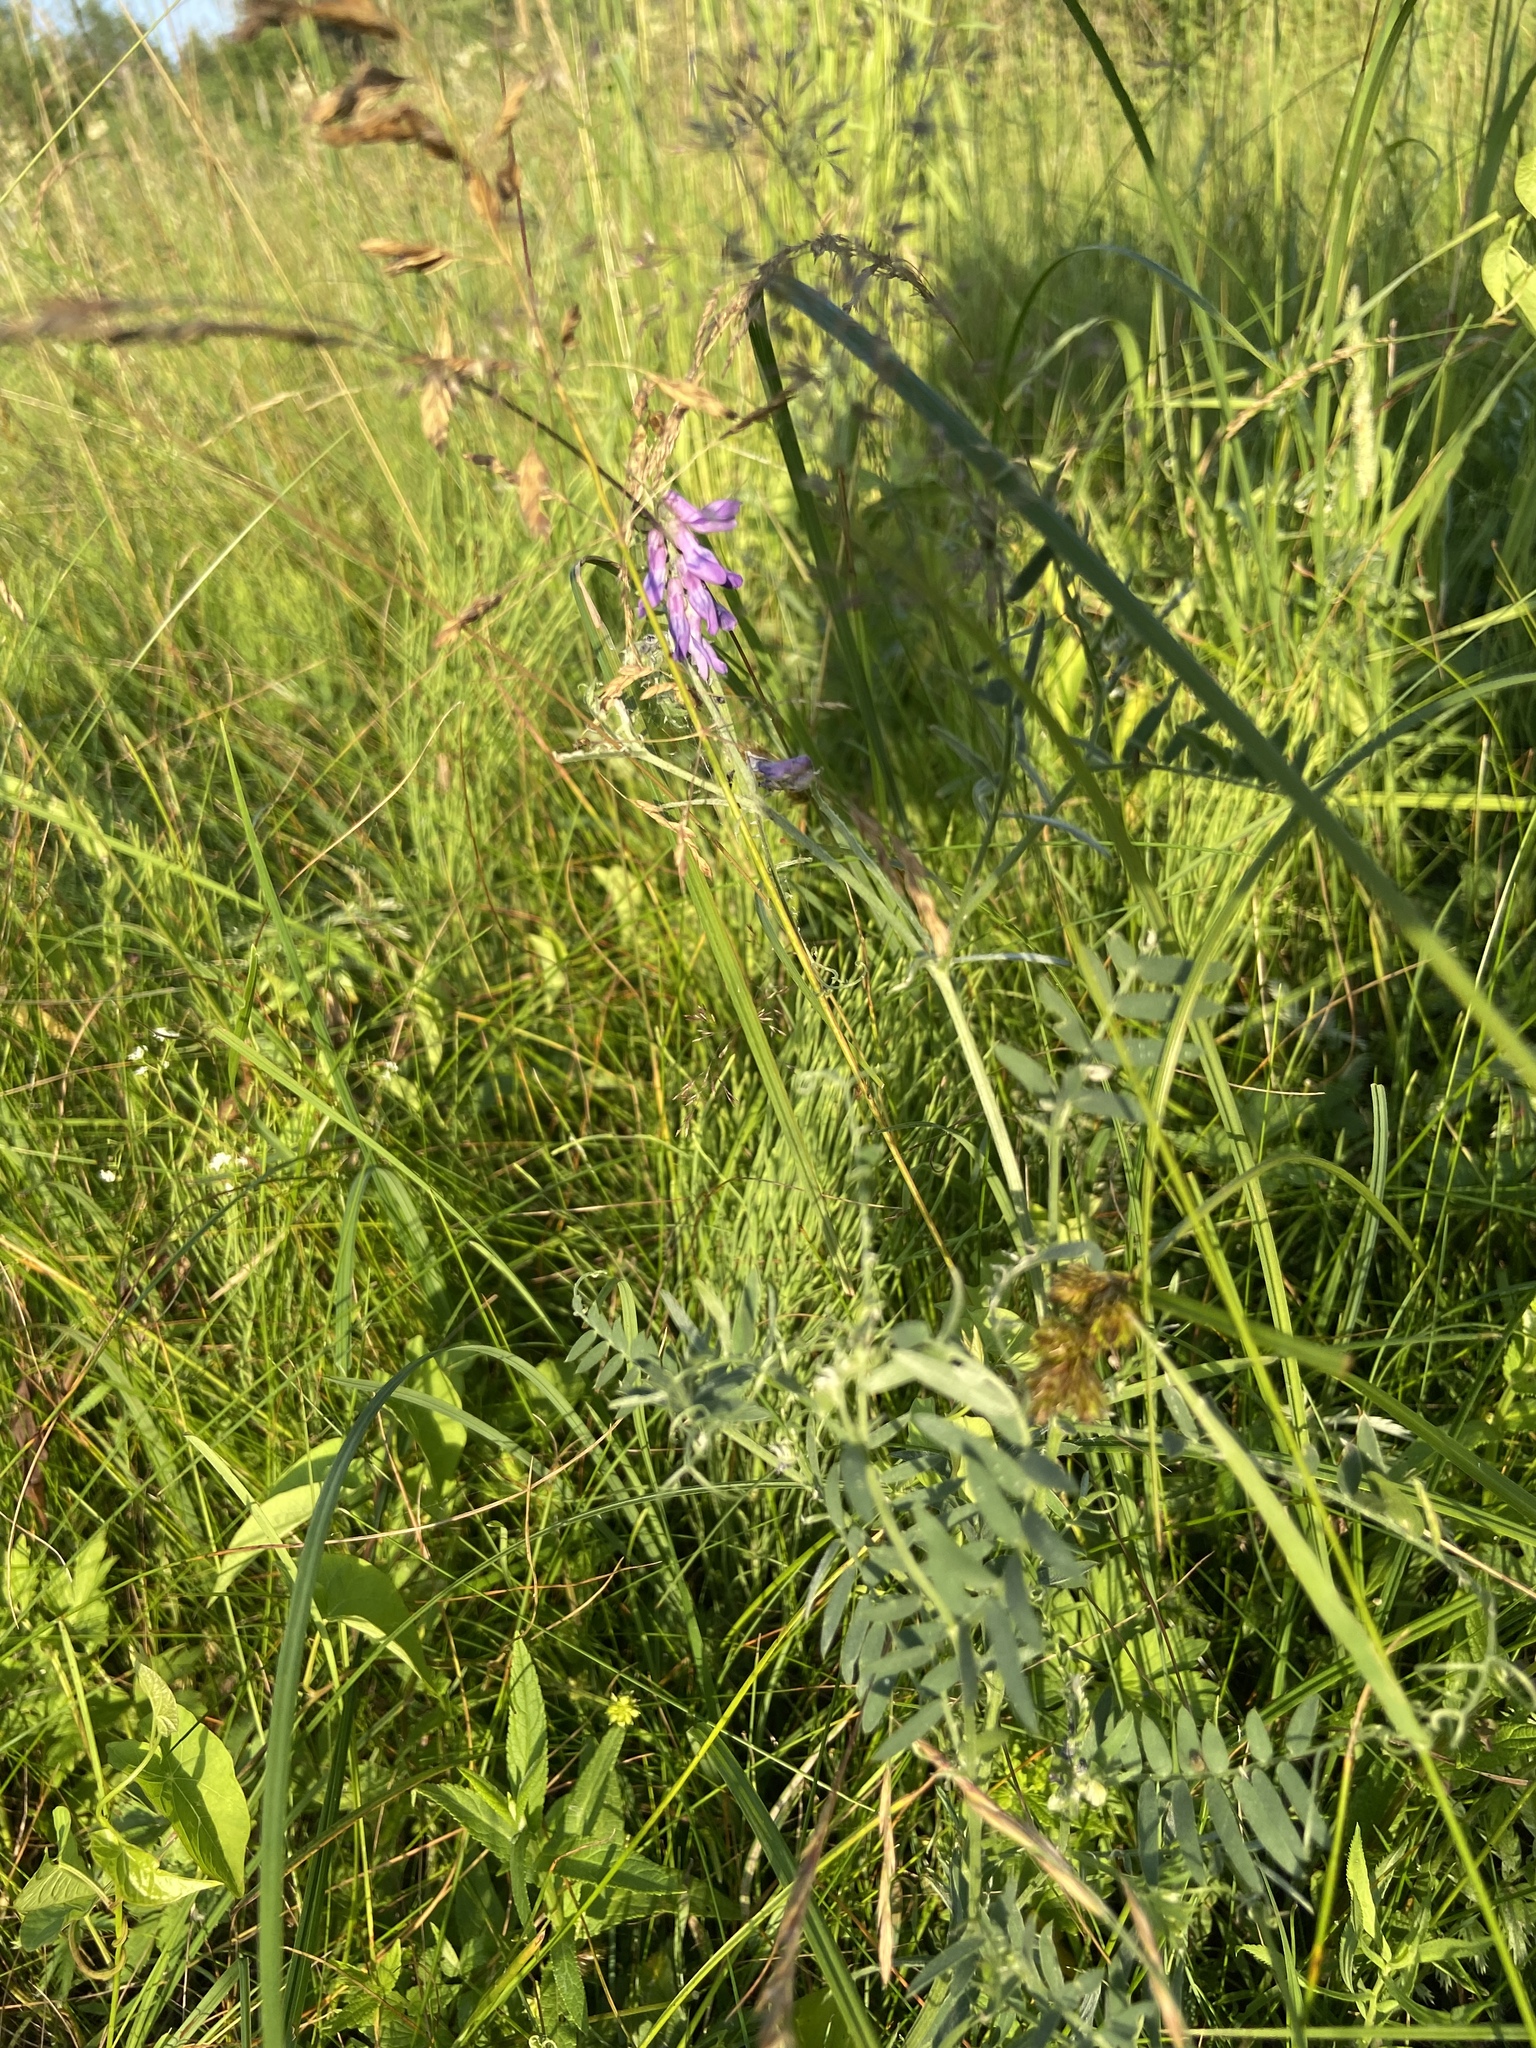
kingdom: Plantae
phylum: Tracheophyta
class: Magnoliopsida
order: Fabales
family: Fabaceae
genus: Vicia
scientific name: Vicia cracca
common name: Bird vetch
